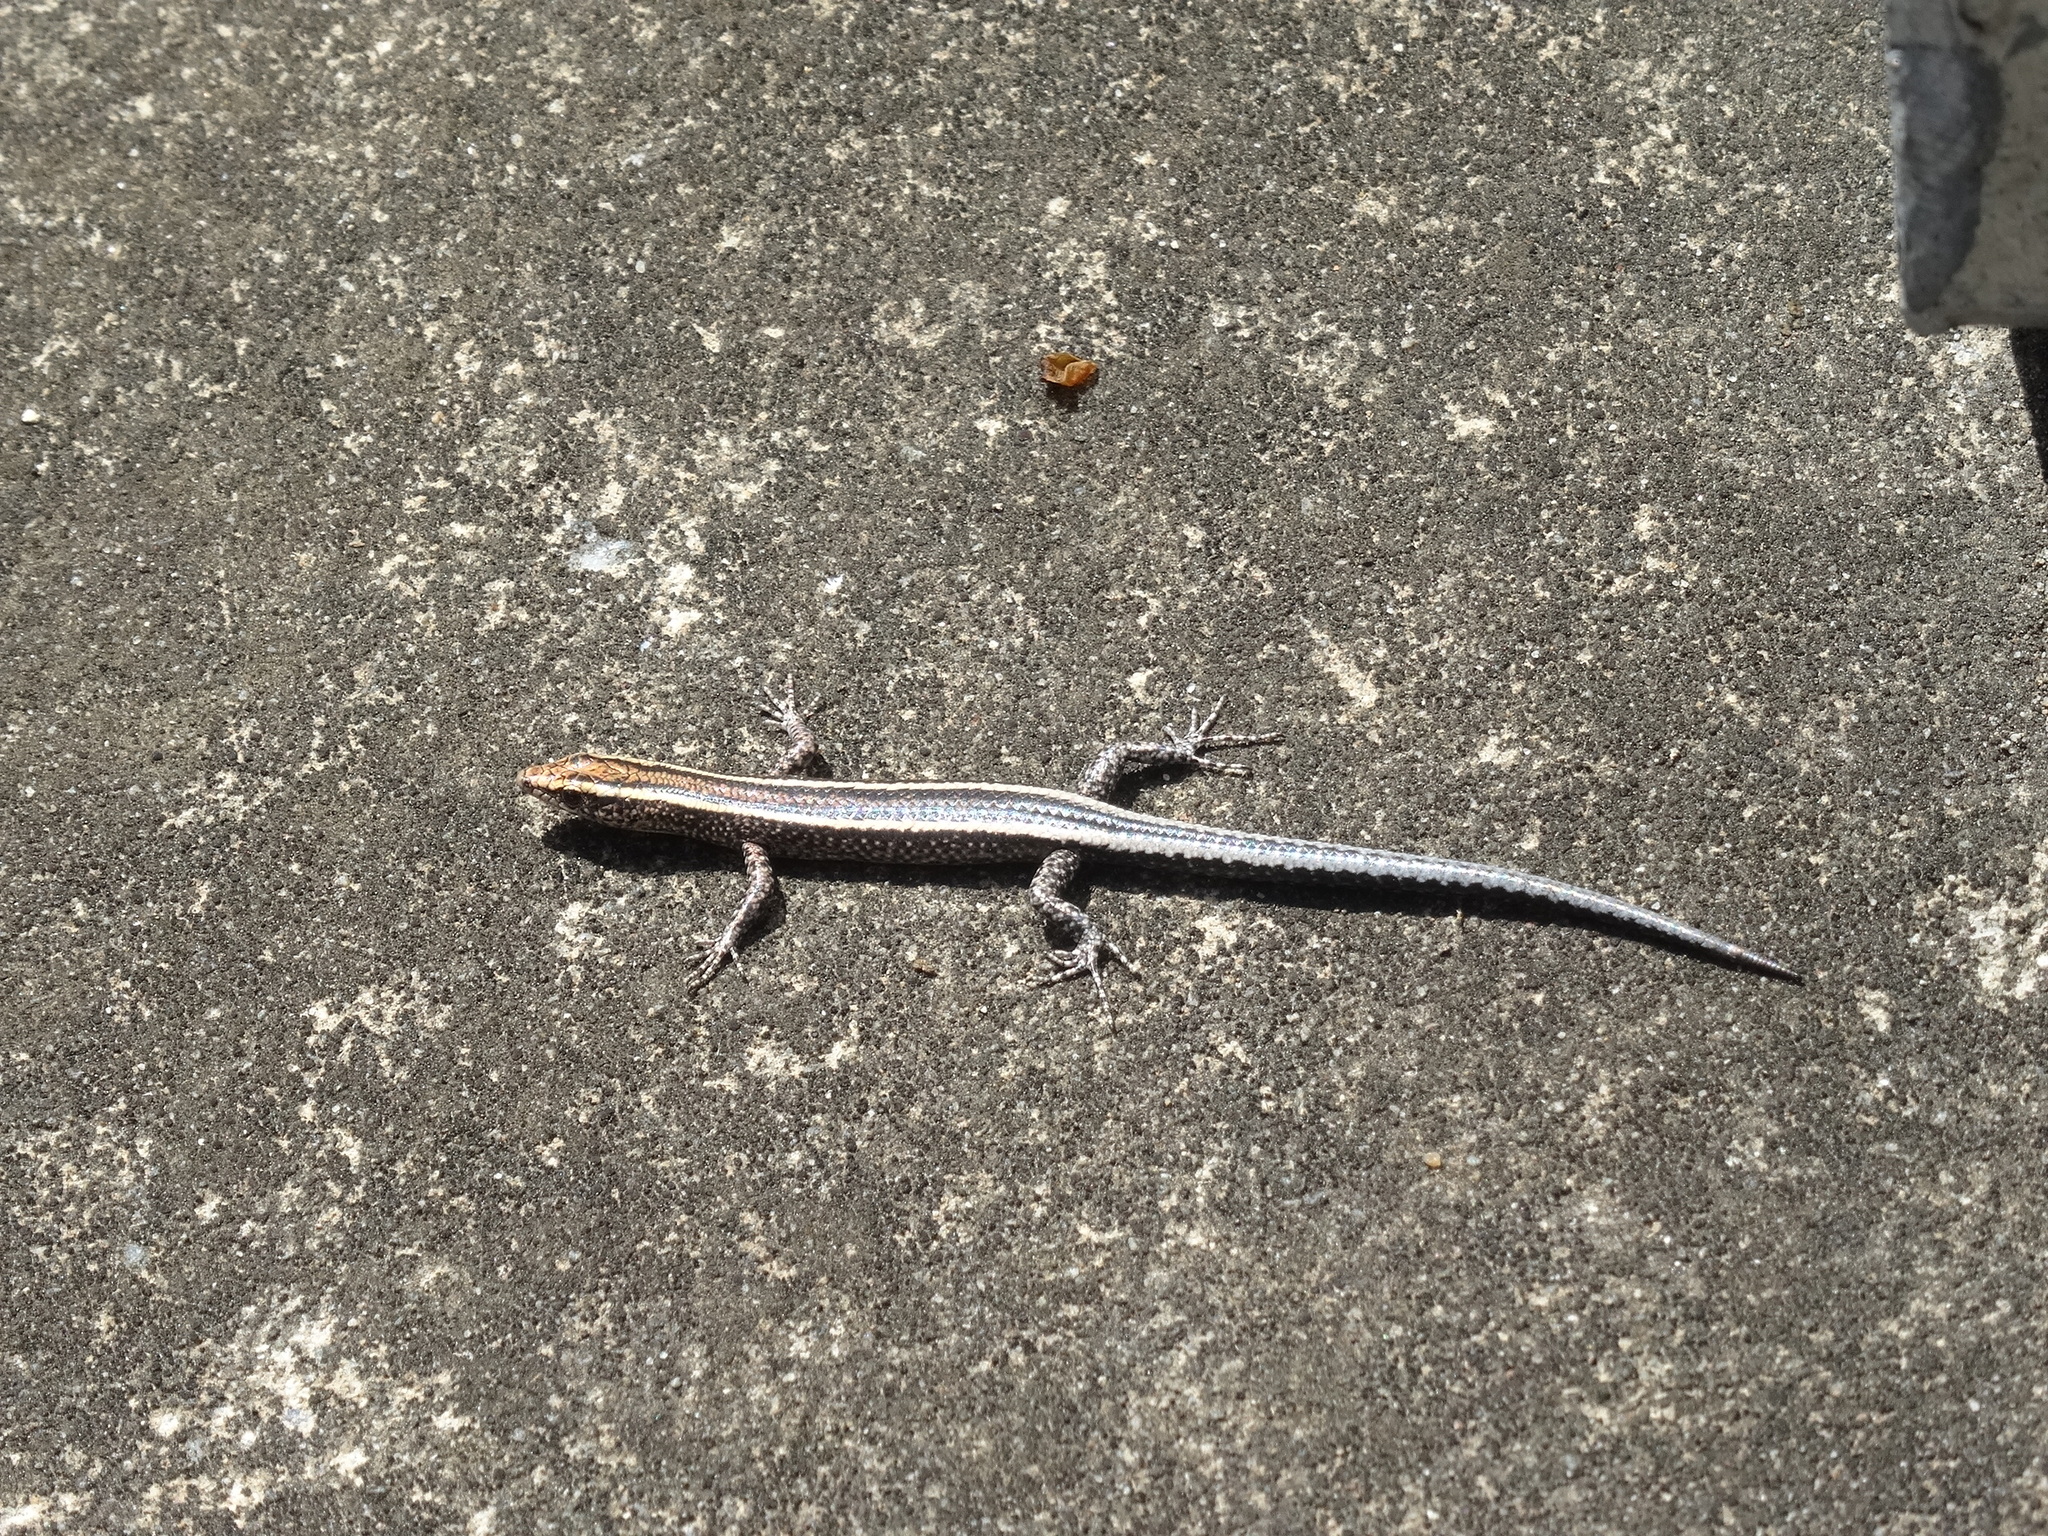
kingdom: Animalia
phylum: Chordata
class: Squamata
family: Scincidae
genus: Cryptoblepharus
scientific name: Cryptoblepharus pulcher
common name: Elegant snake-eyed skink
